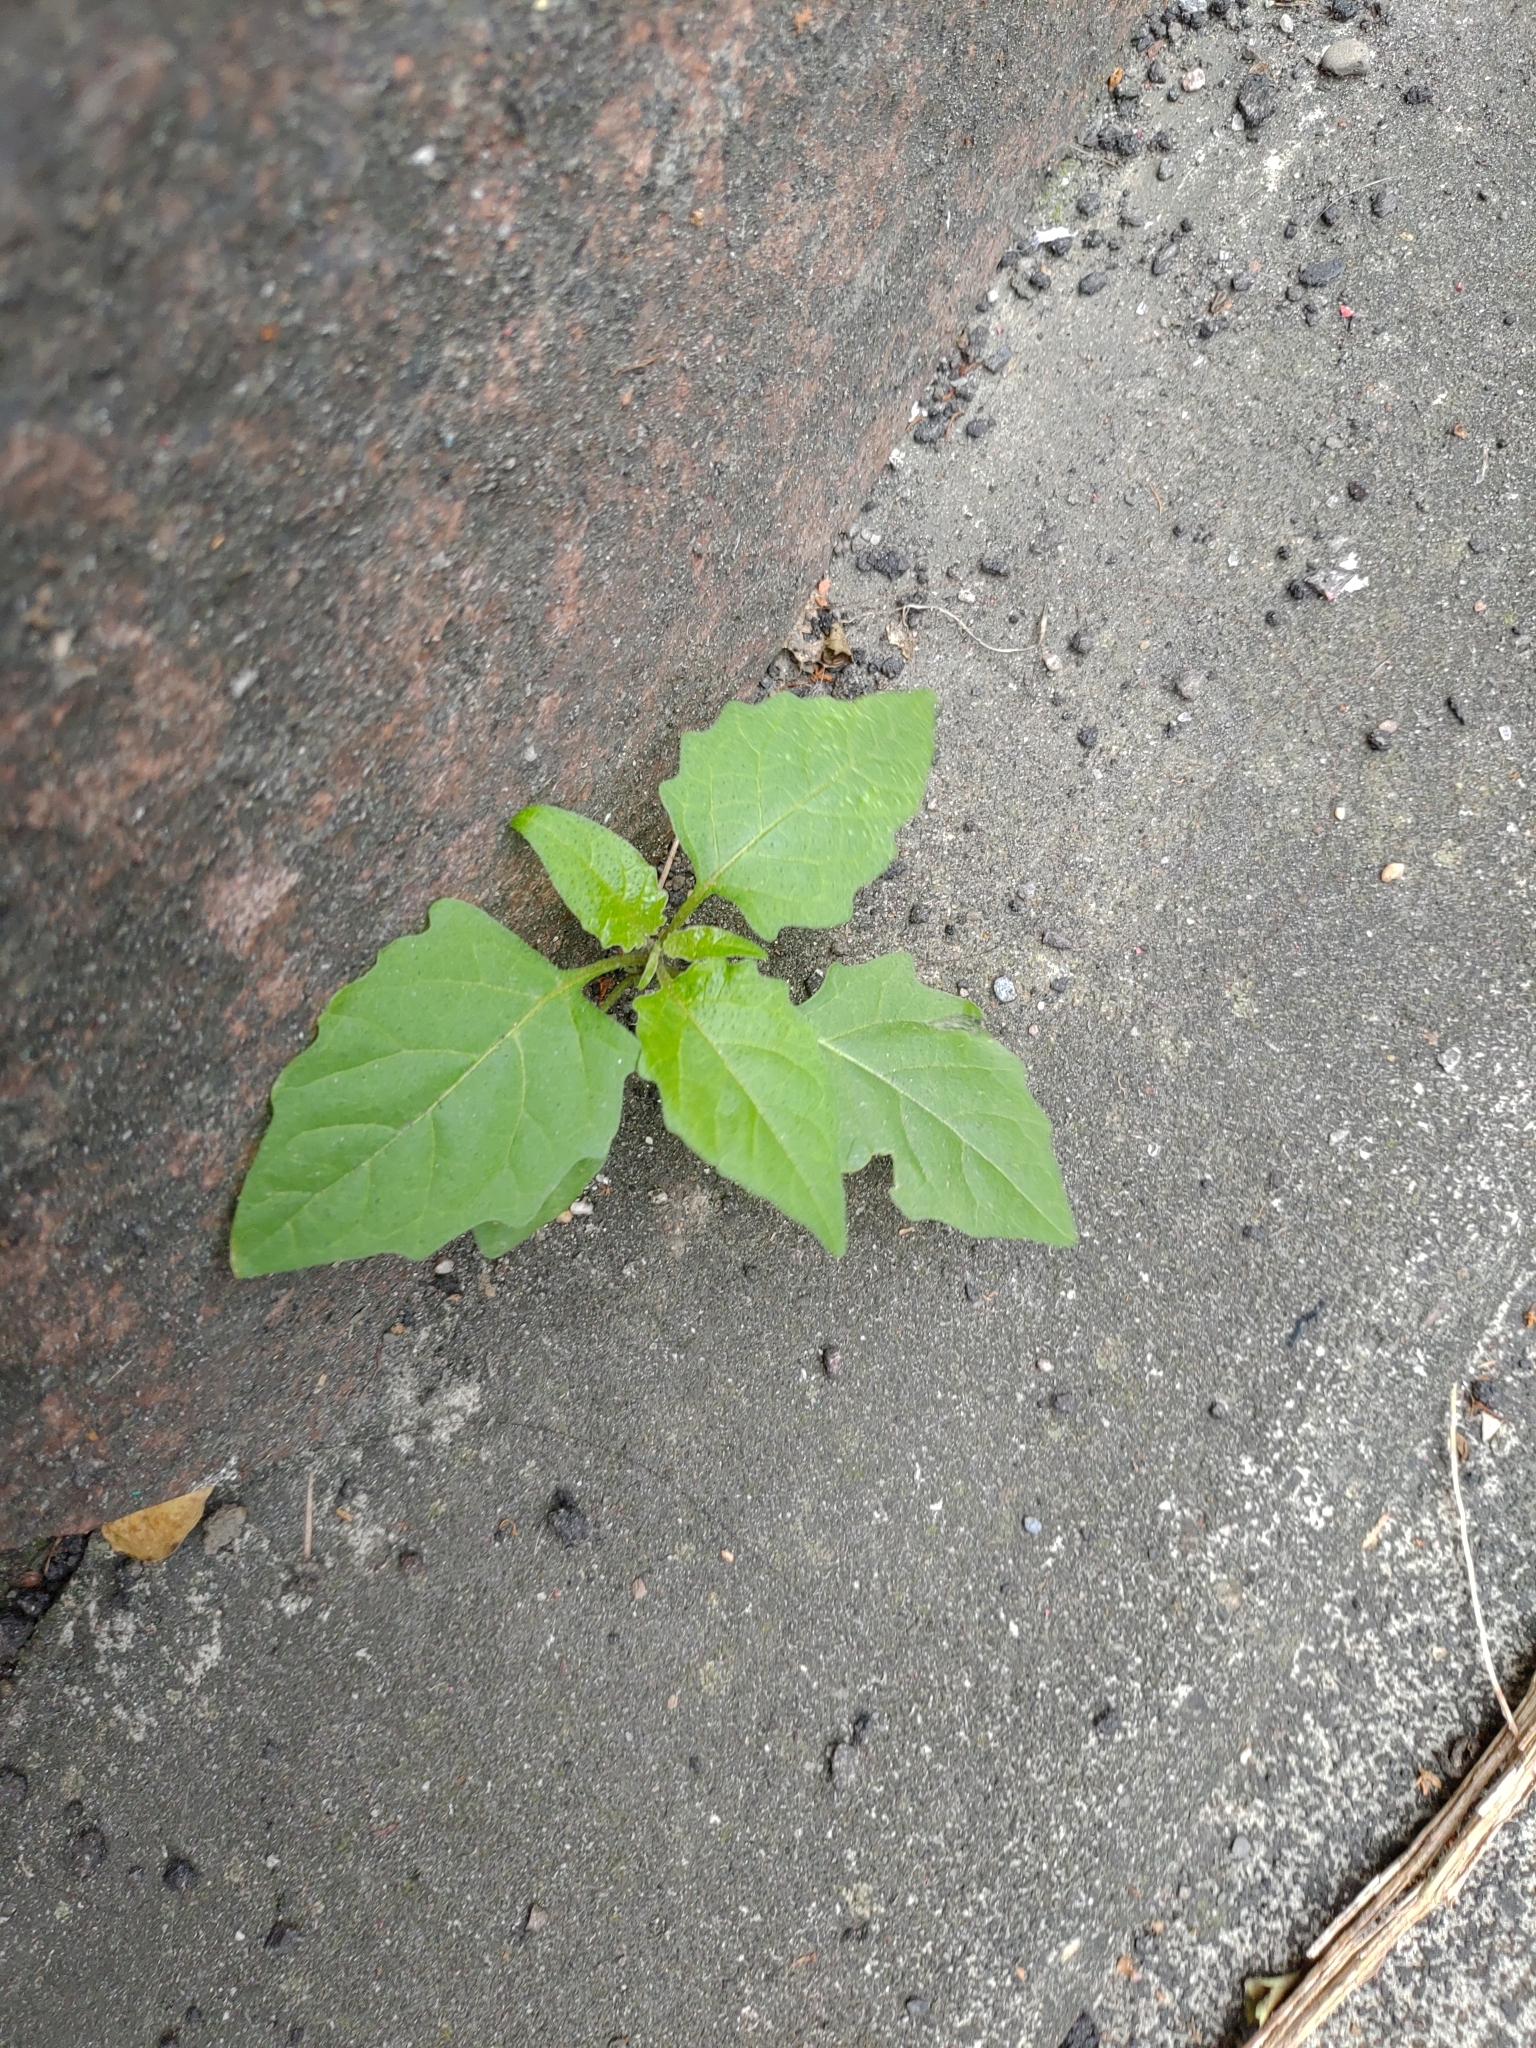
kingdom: Plantae
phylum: Tracheophyta
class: Magnoliopsida
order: Solanales
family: Solanaceae
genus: Solanum
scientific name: Solanum
